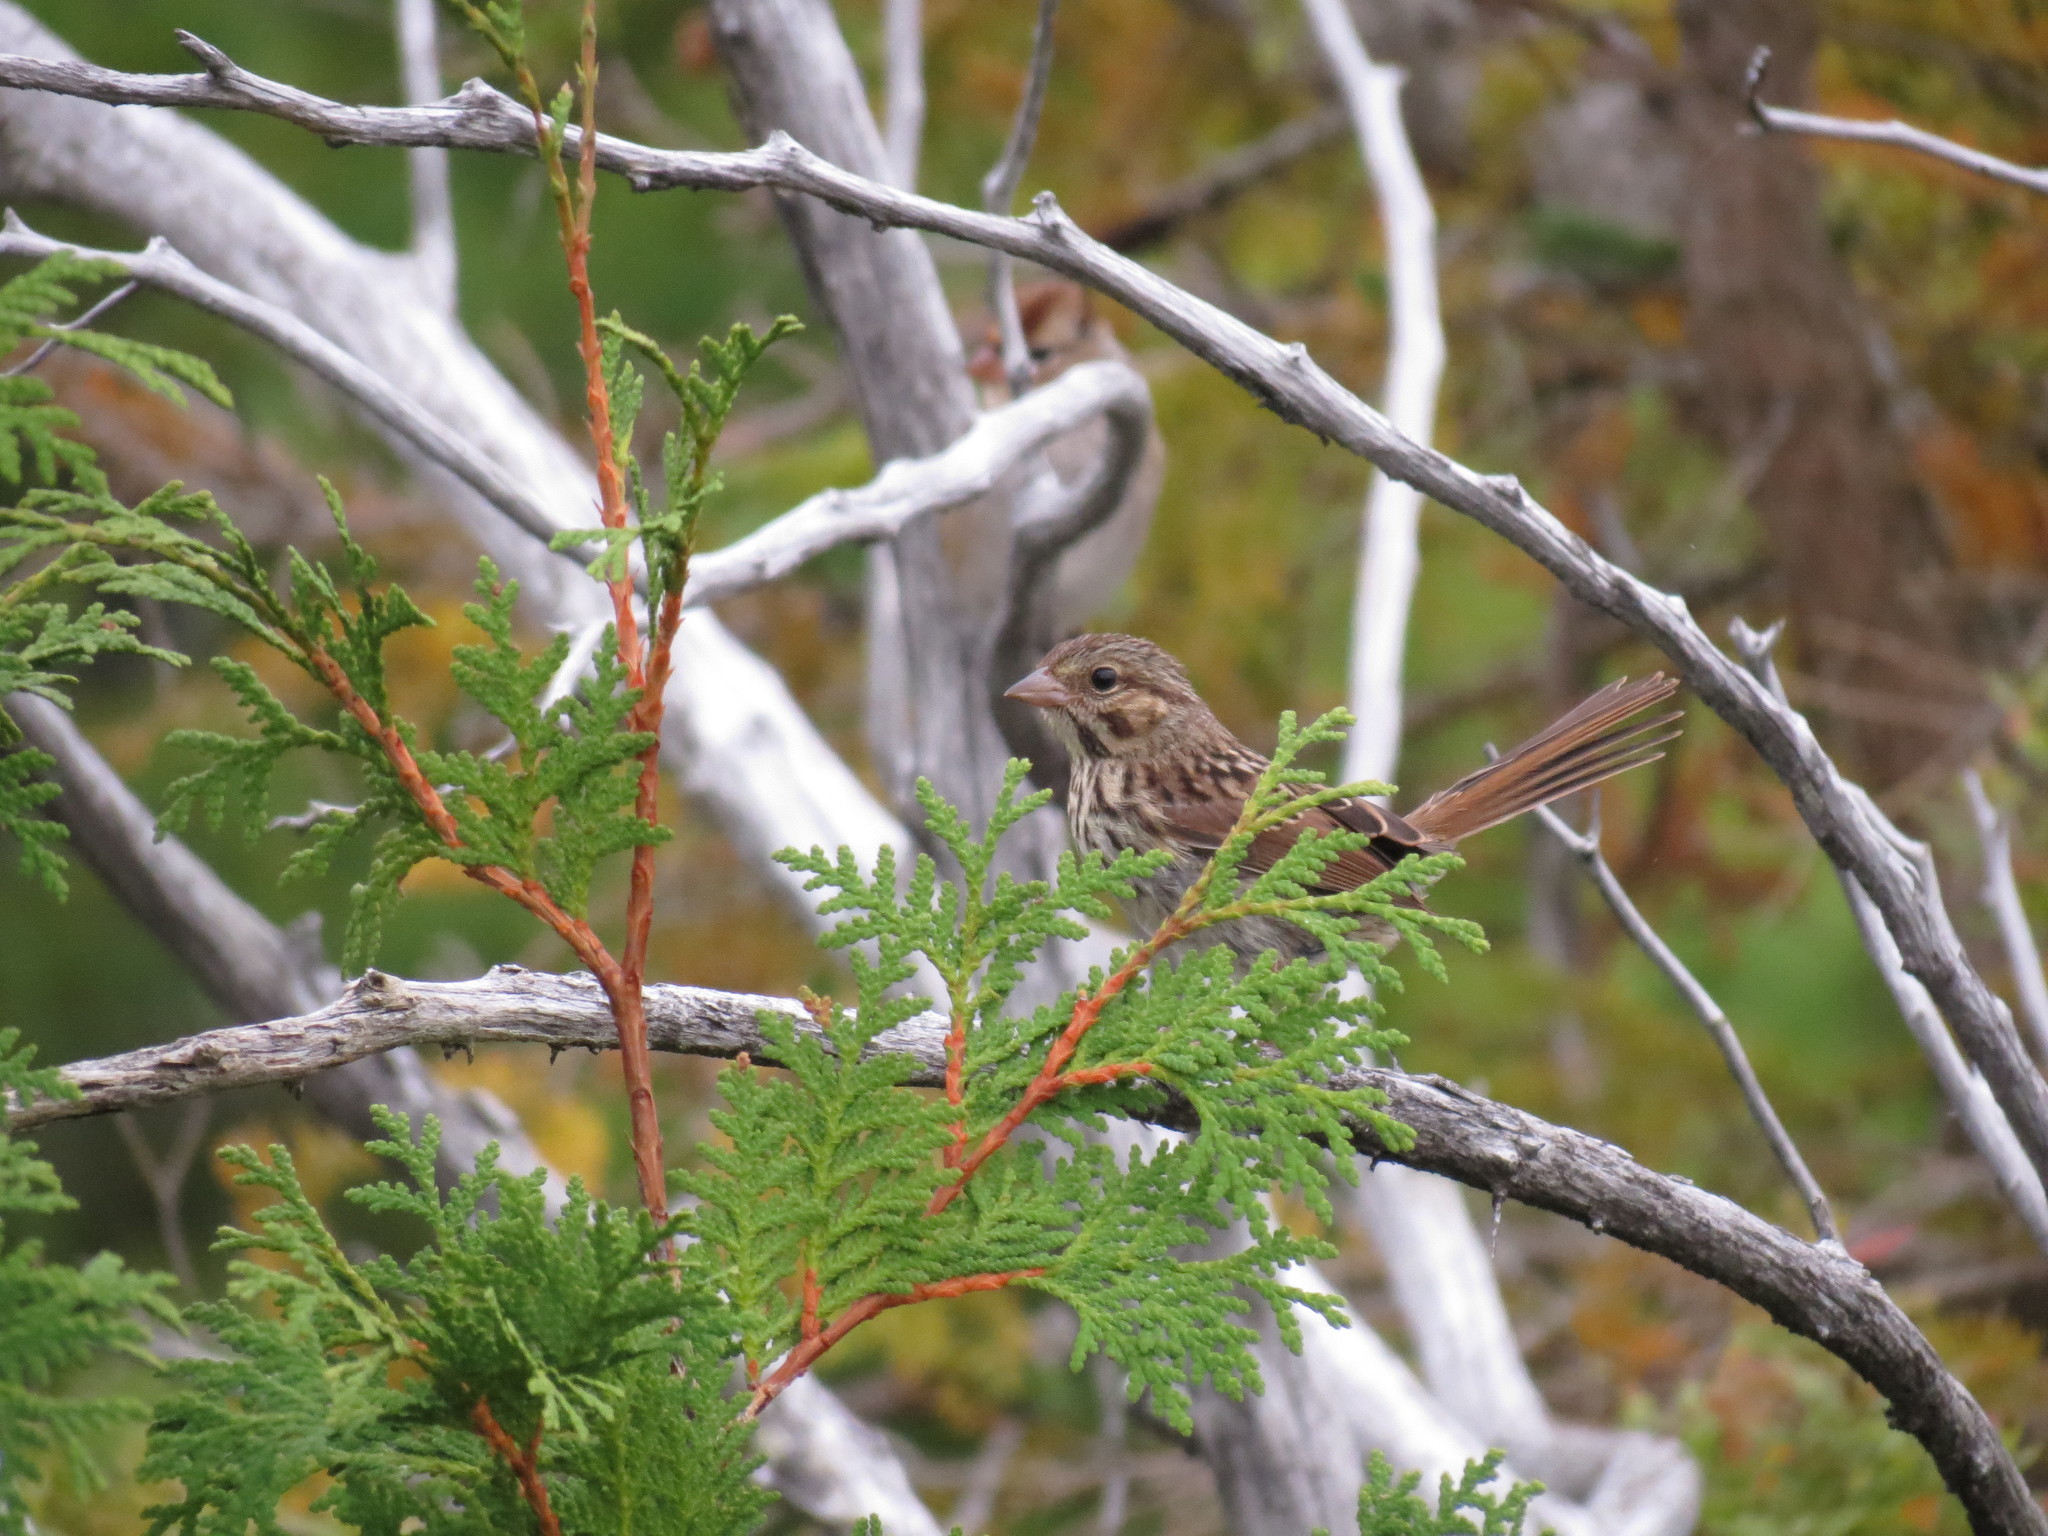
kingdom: Animalia
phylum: Chordata
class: Aves
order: Passeriformes
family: Passerellidae
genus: Melospiza
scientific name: Melospiza melodia
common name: Song sparrow
